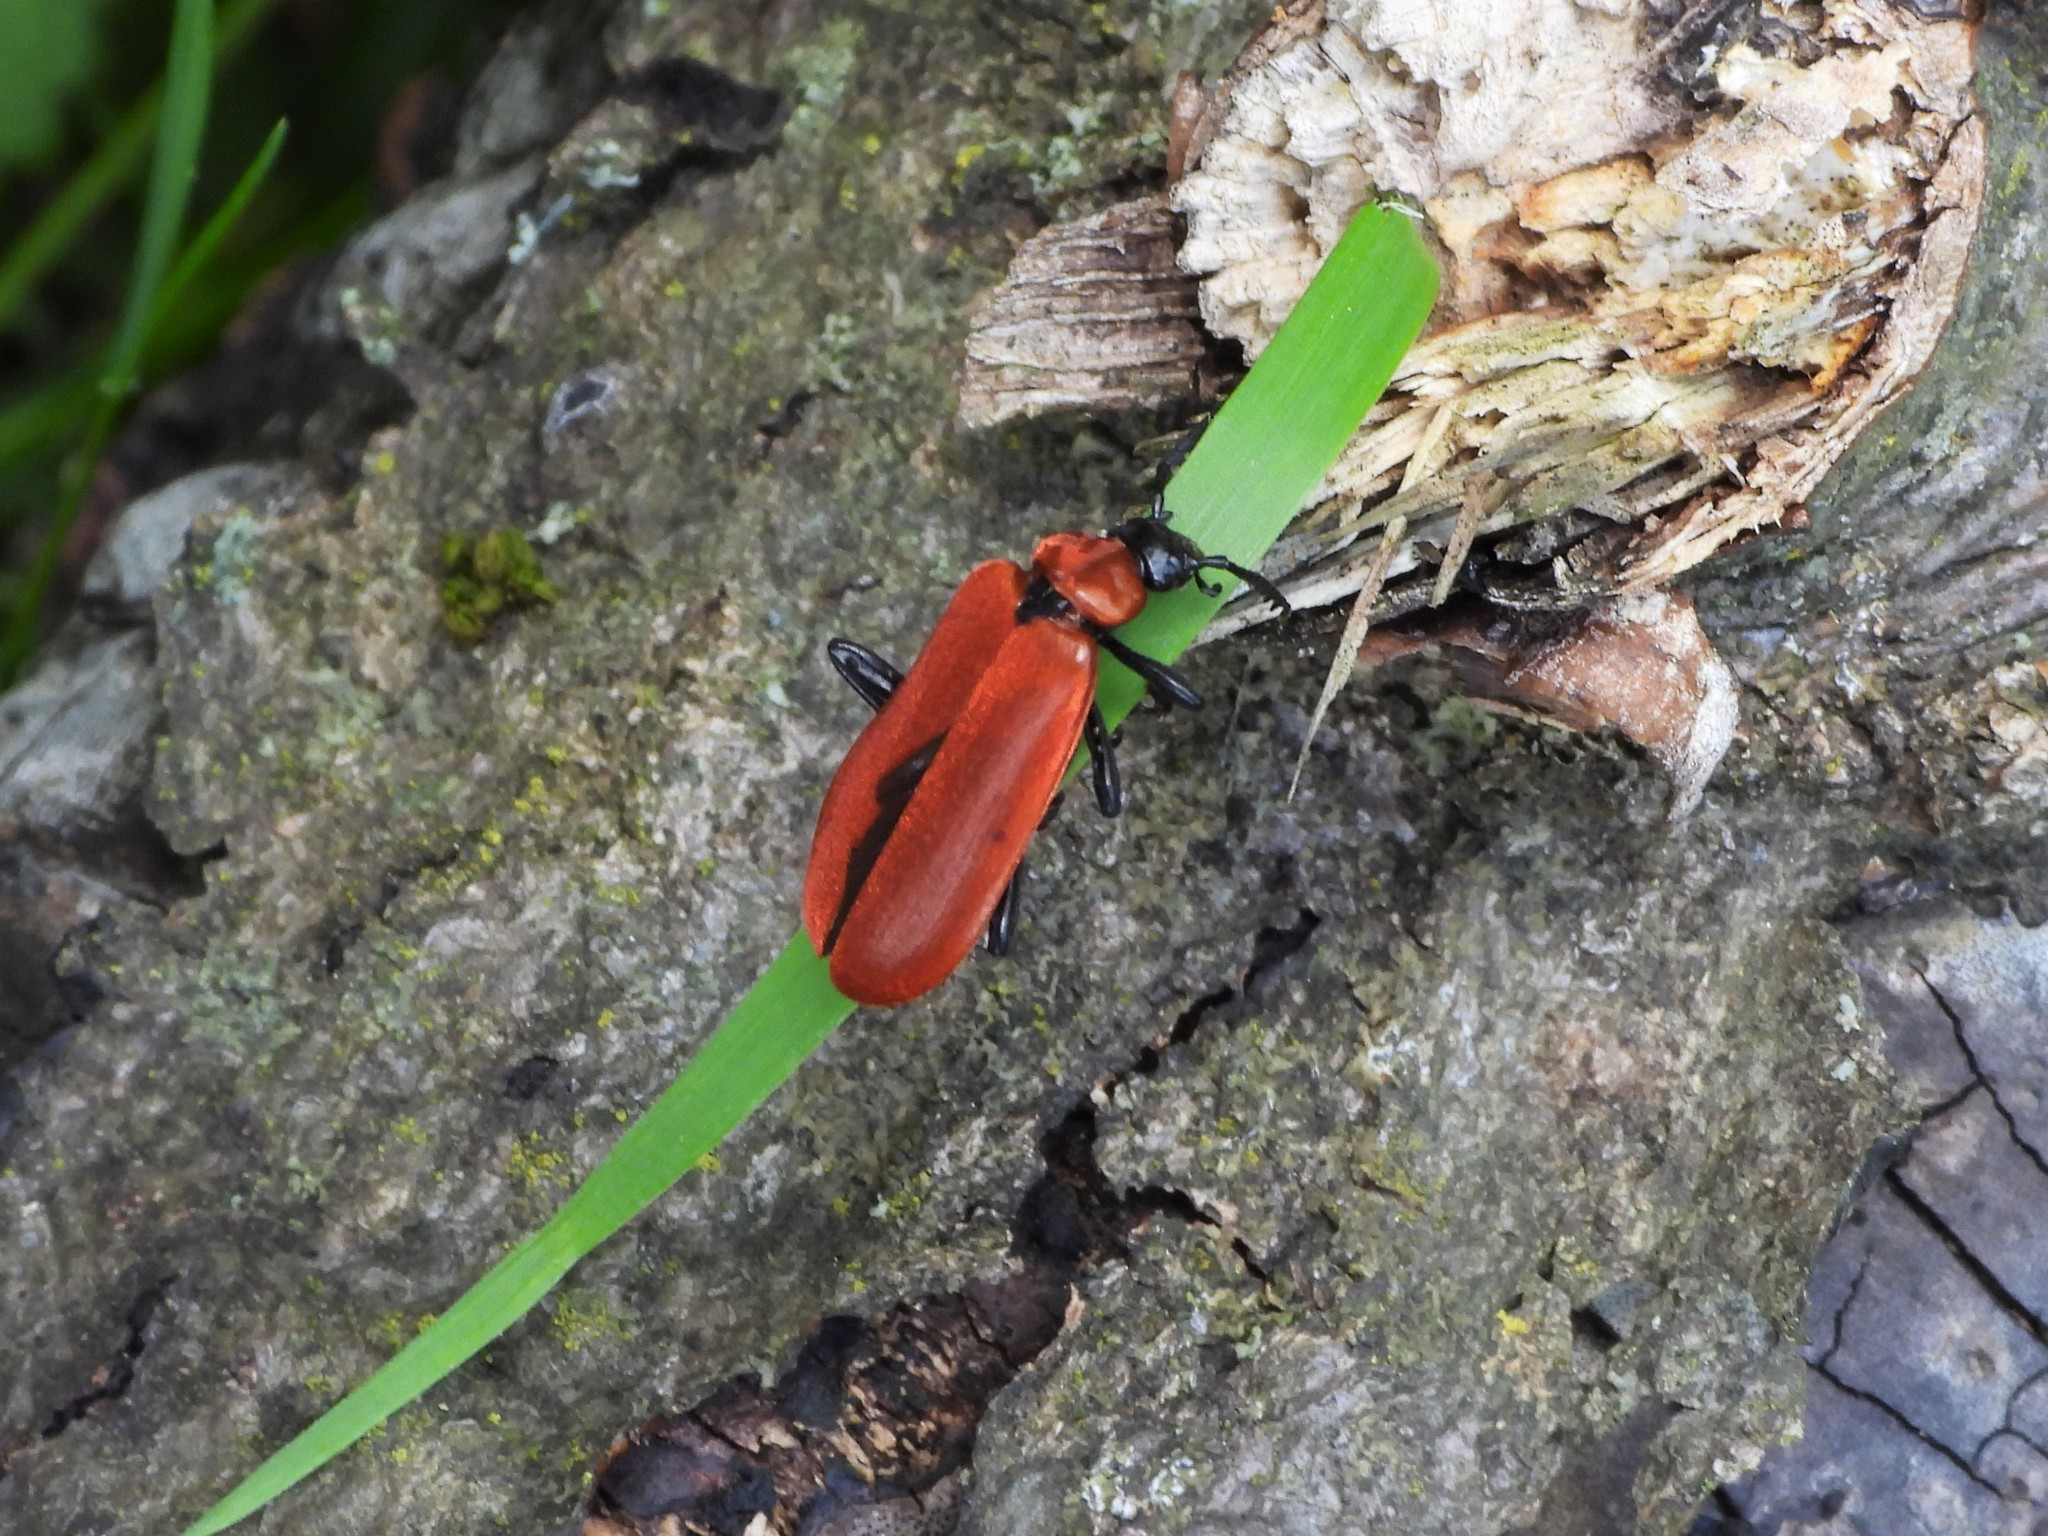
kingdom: Animalia
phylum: Arthropoda
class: Insecta
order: Coleoptera
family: Pyrochroidae
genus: Pyrochroa
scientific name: Pyrochroa coccinea
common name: Black-headed cardinal beetle
